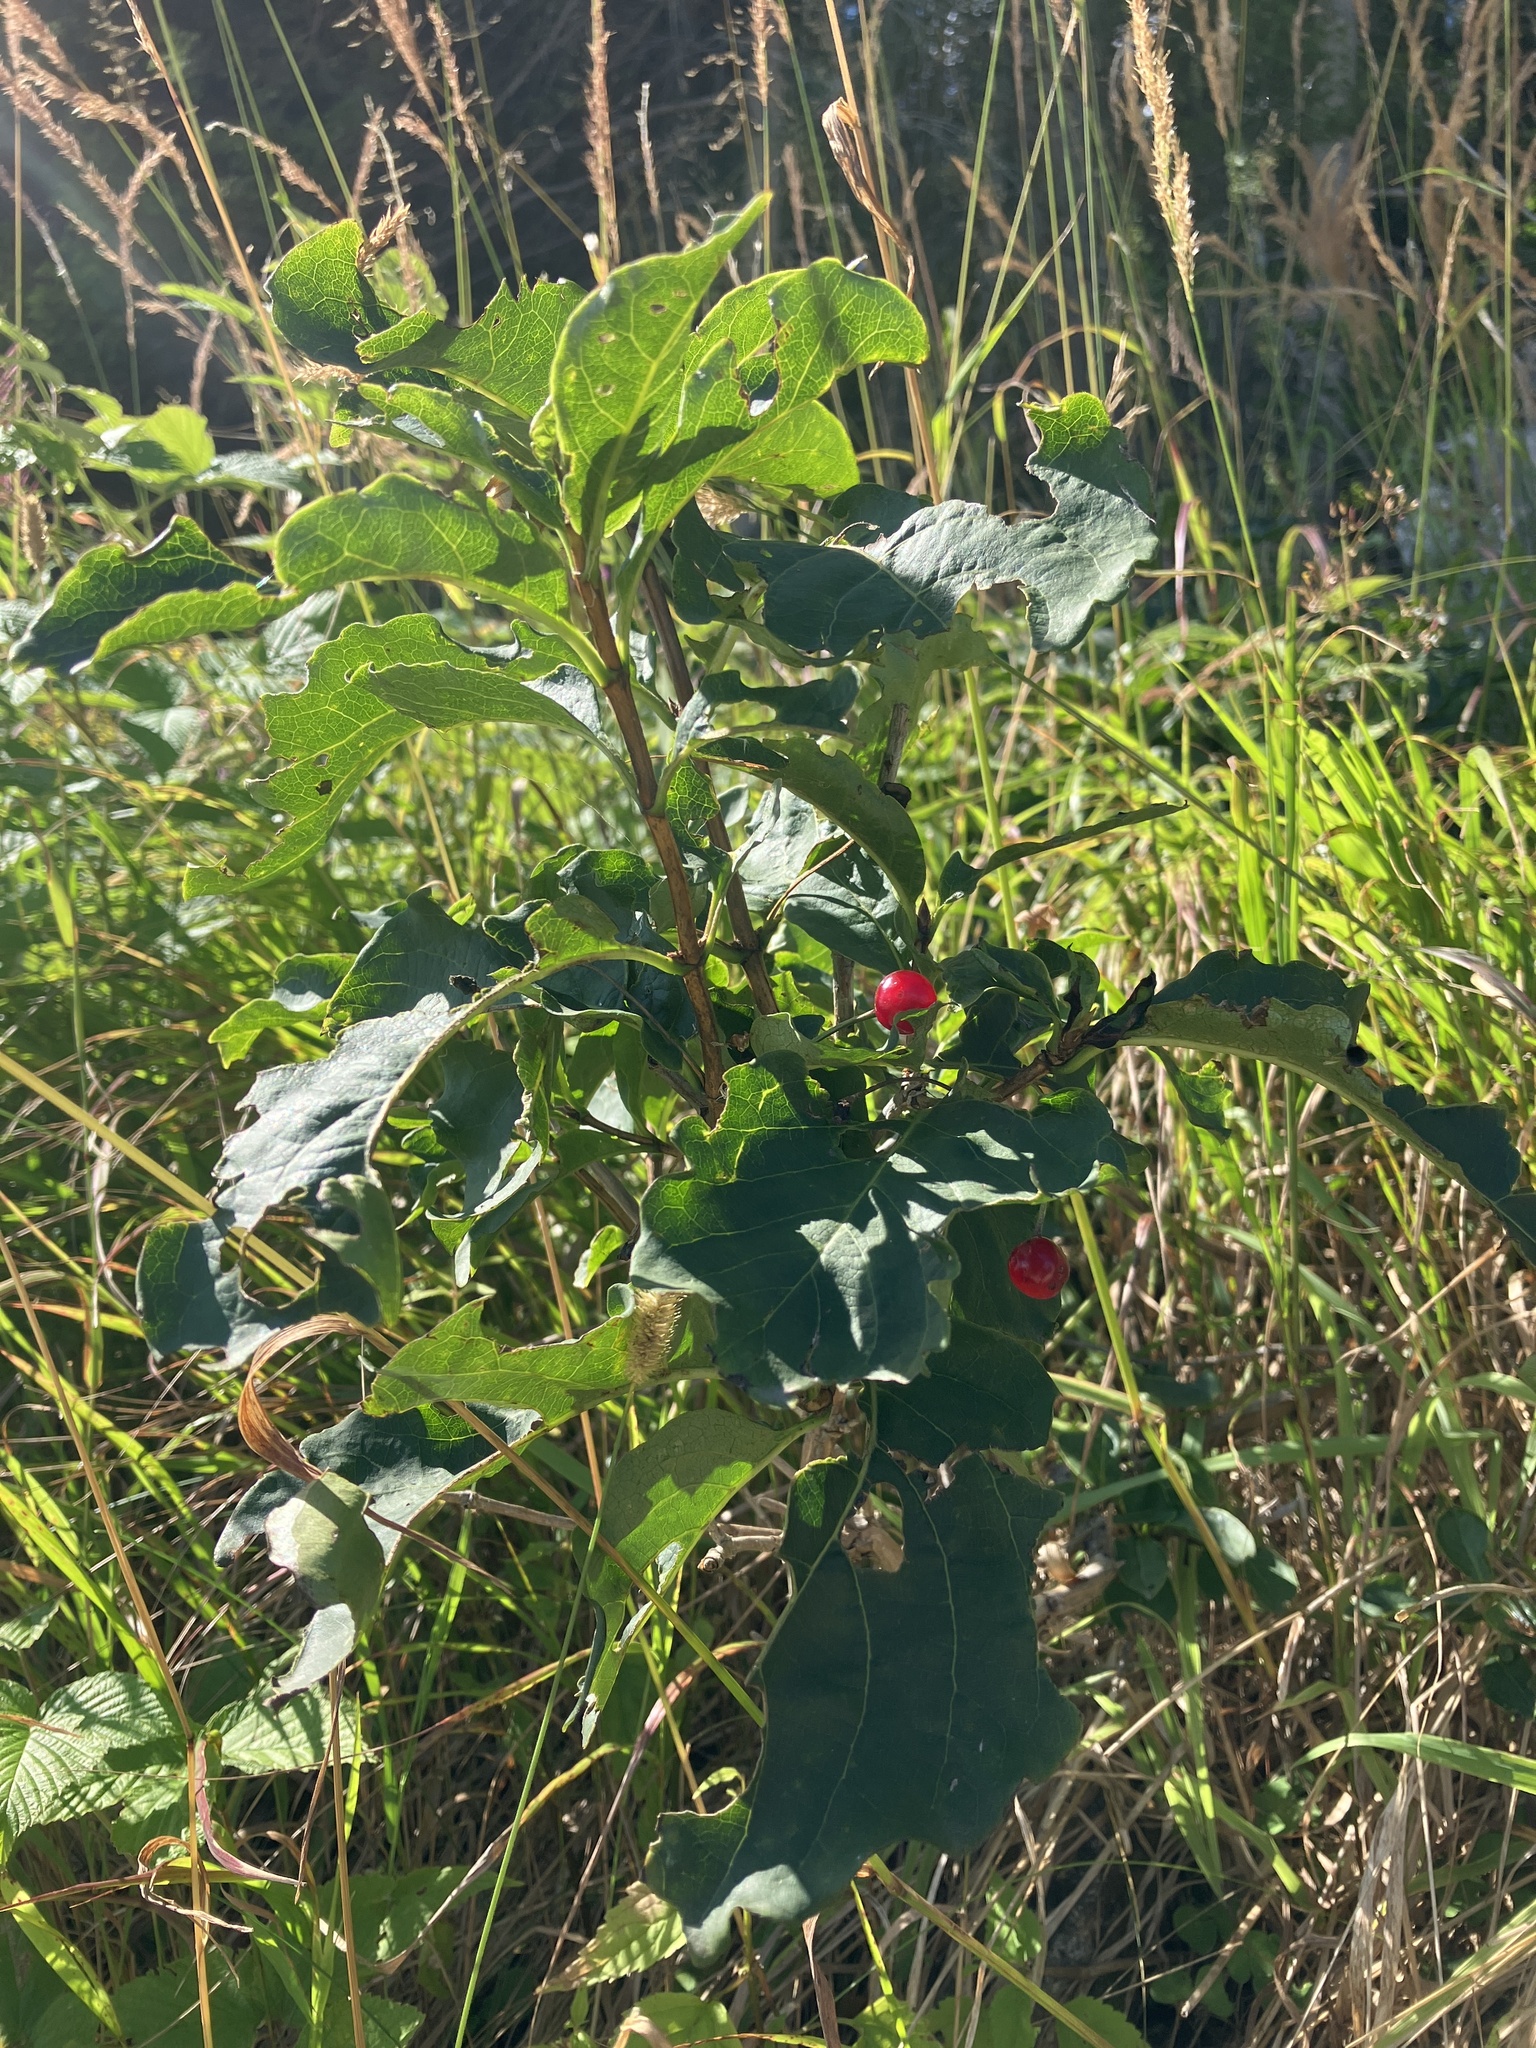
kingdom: Plantae
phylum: Tracheophyta
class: Magnoliopsida
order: Dipsacales
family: Caprifoliaceae
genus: Lonicera
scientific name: Lonicera alpigena
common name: Alpine honeysuckle
